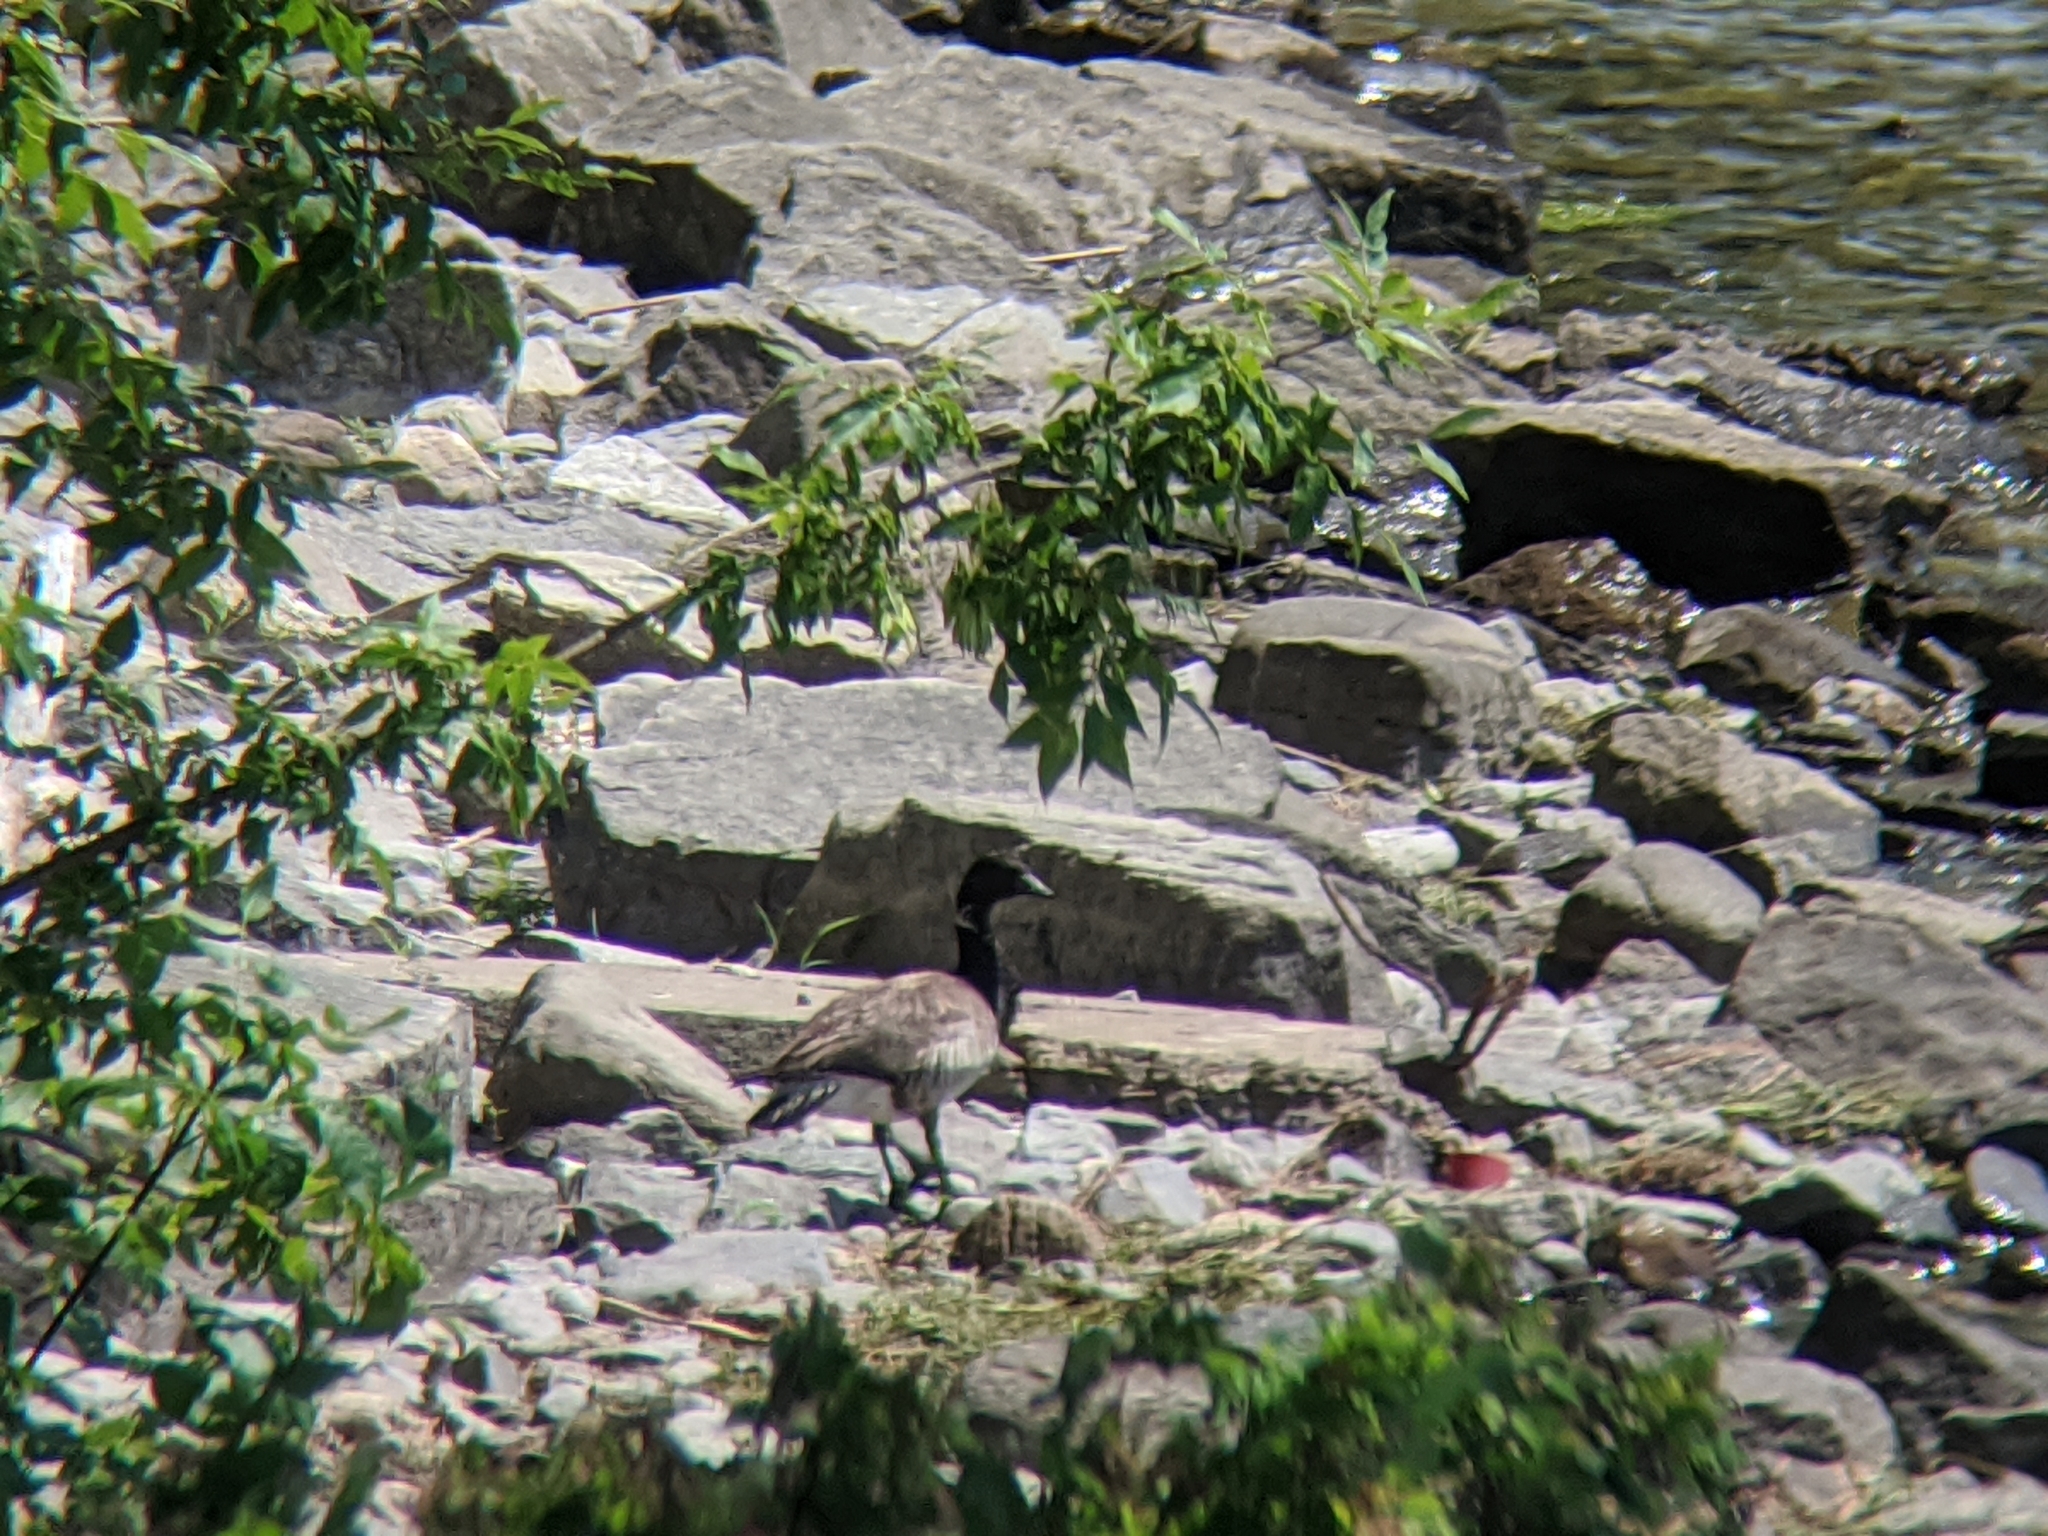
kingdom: Animalia
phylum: Chordata
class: Aves
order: Anseriformes
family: Anatidae
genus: Branta
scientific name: Branta bernicla
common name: Brant goose
